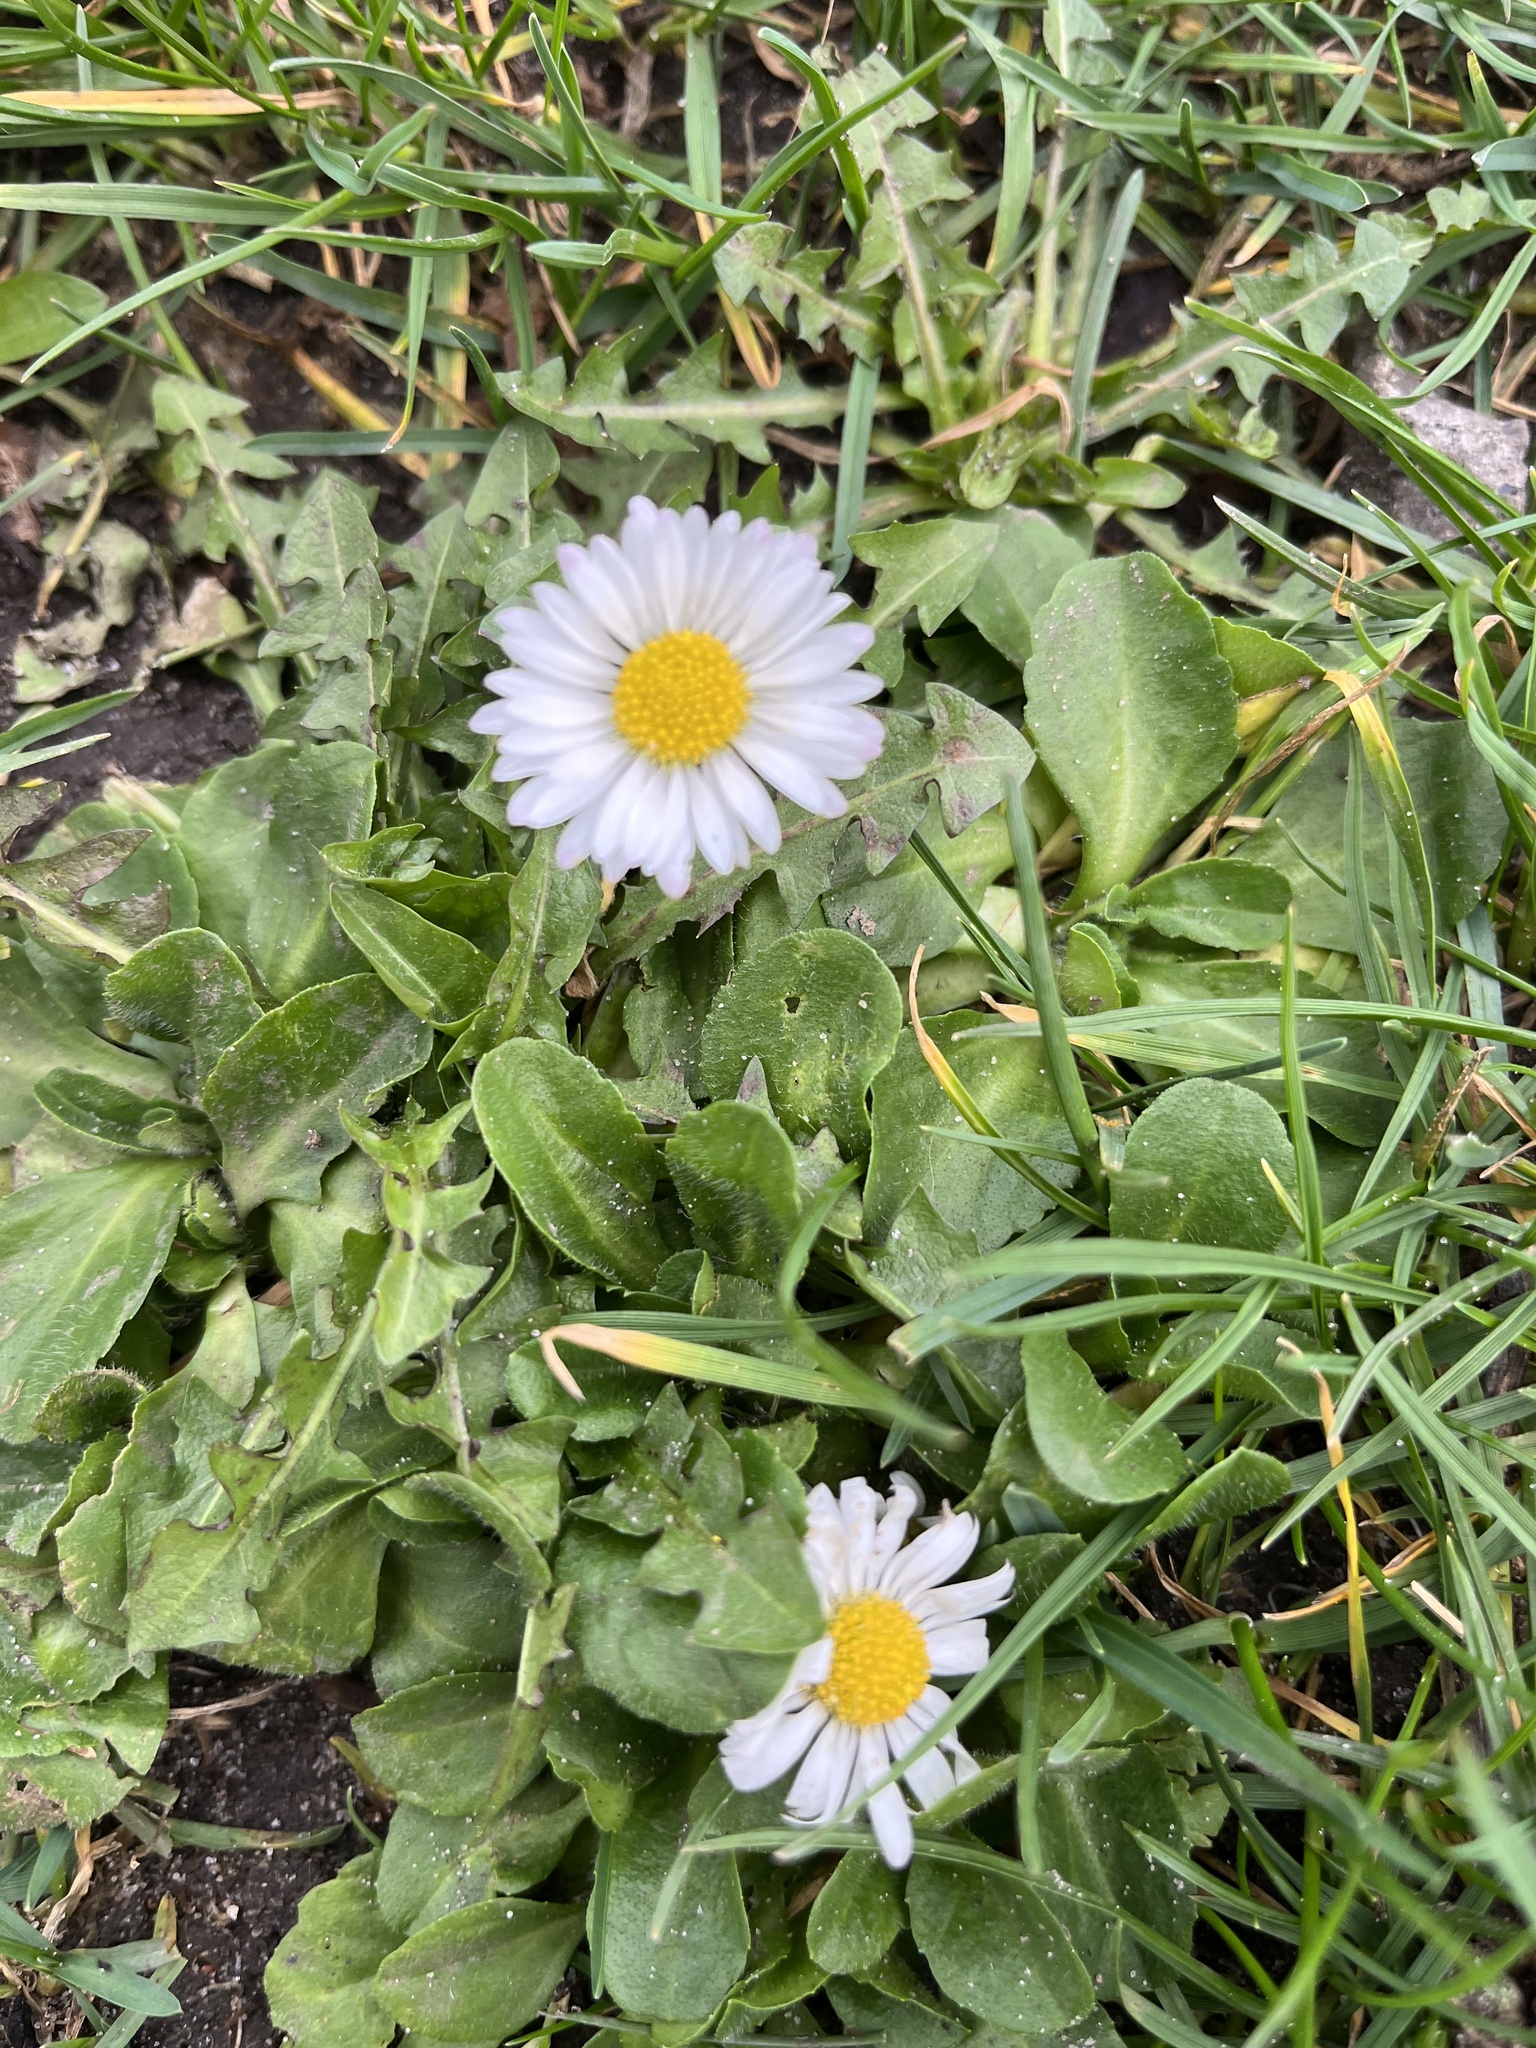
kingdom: Plantae
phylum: Tracheophyta
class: Magnoliopsida
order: Asterales
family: Asteraceae
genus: Bellis
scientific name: Bellis perennis
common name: Lawndaisy
